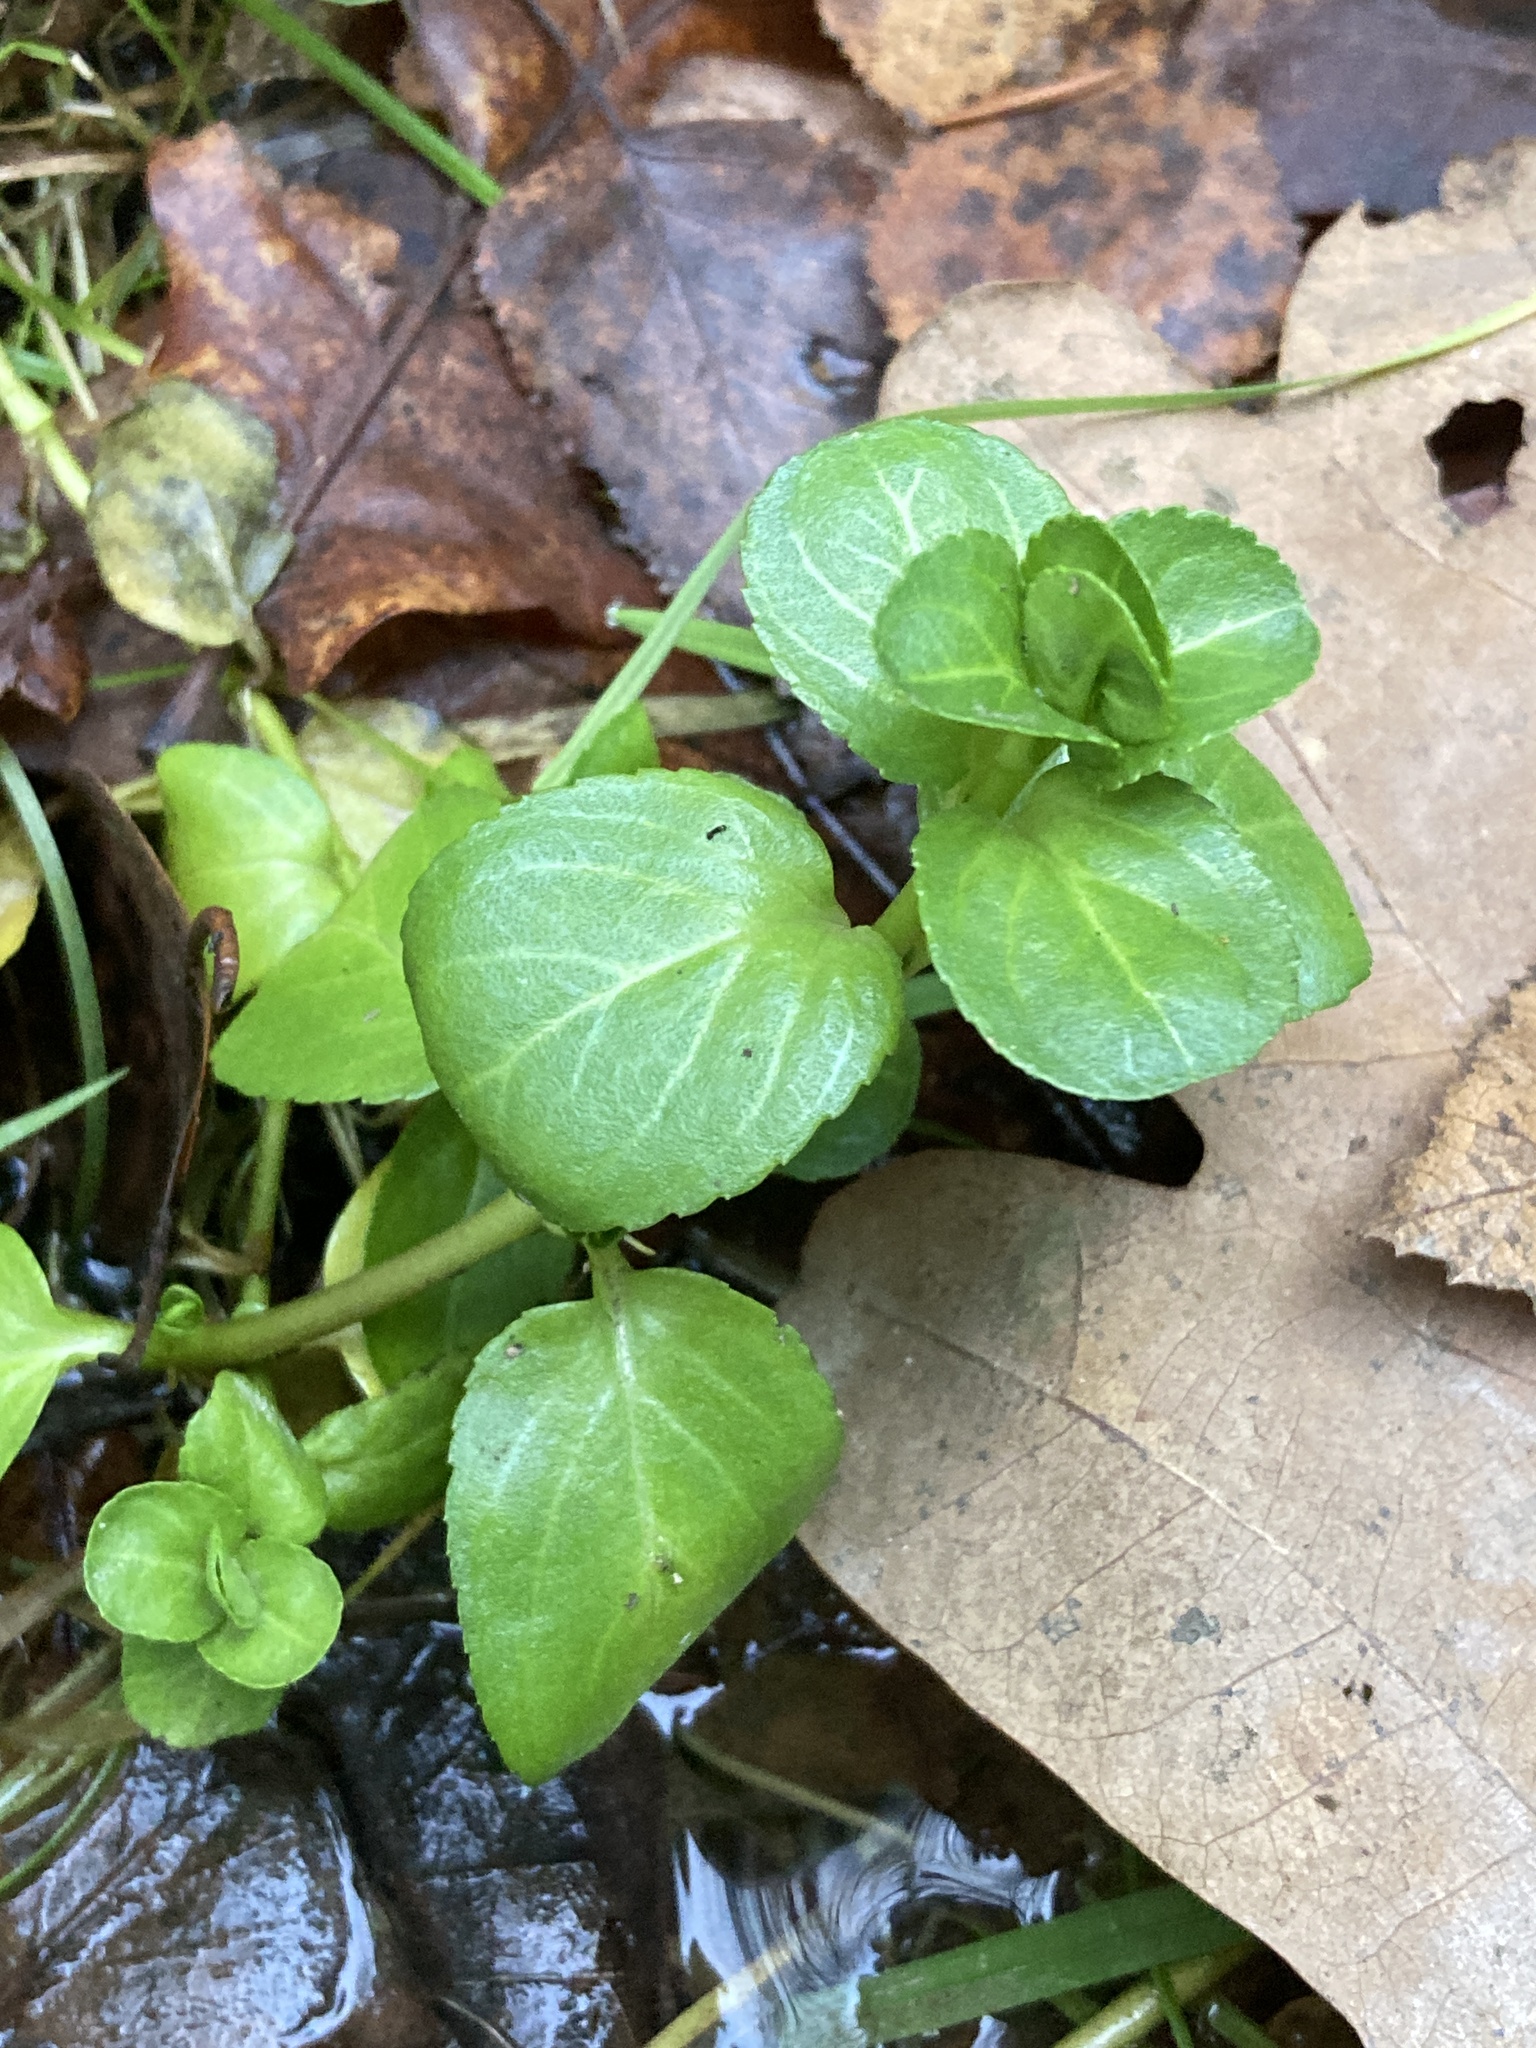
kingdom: Plantae
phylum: Tracheophyta
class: Magnoliopsida
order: Lamiales
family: Plantaginaceae
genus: Veronica
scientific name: Veronica beccabunga
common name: Brooklime
